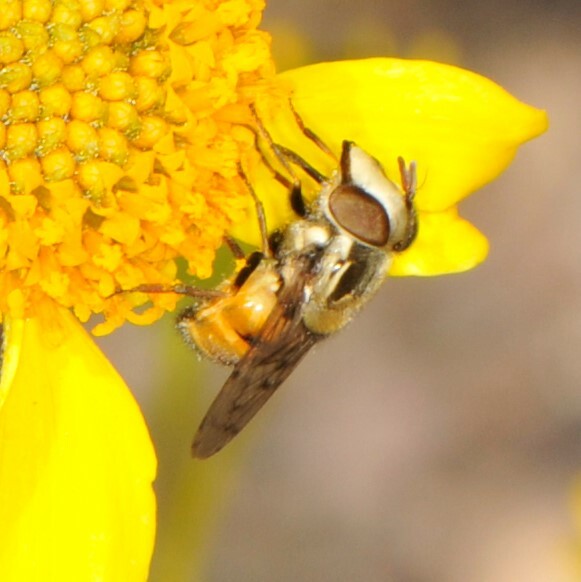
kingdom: Animalia
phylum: Arthropoda
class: Insecta
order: Diptera
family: Syrphidae
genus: Copestylum
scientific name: Copestylum satur
